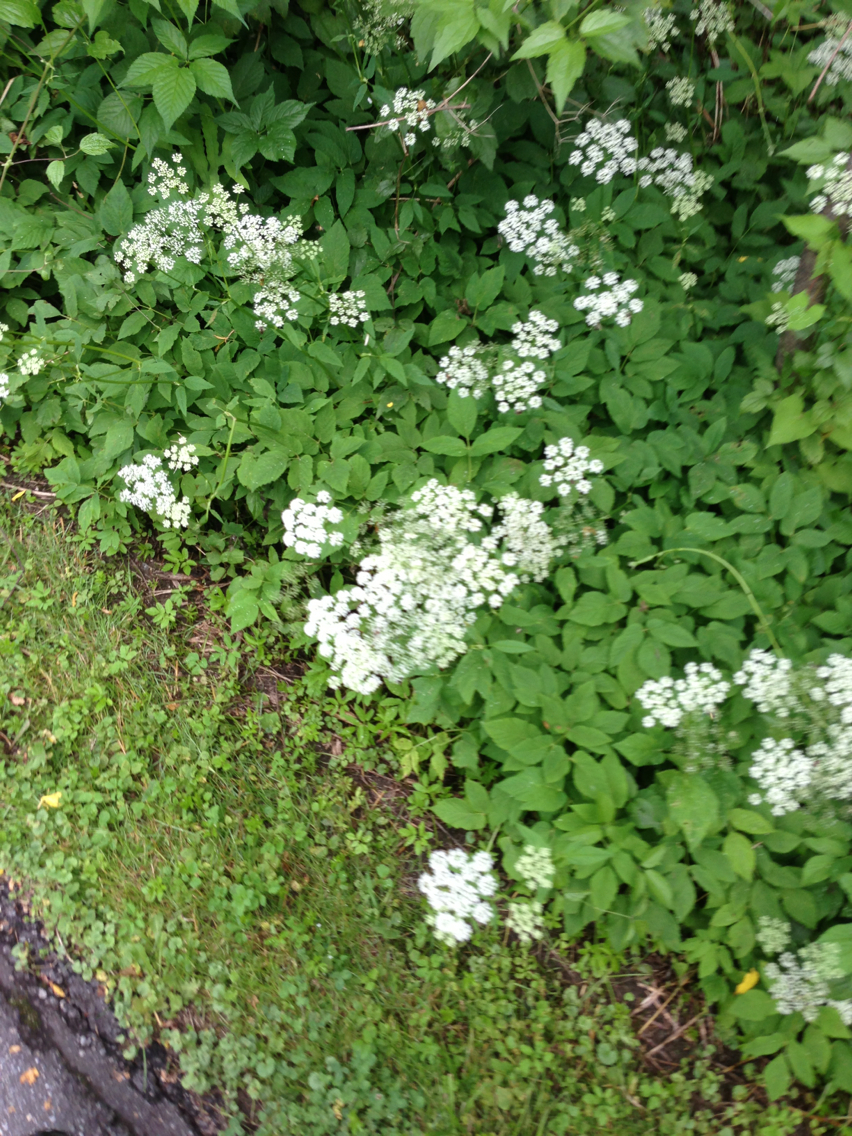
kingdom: Plantae
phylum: Tracheophyta
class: Magnoliopsida
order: Apiales
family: Apiaceae
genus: Aegopodium
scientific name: Aegopodium podagraria
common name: Ground-elder
